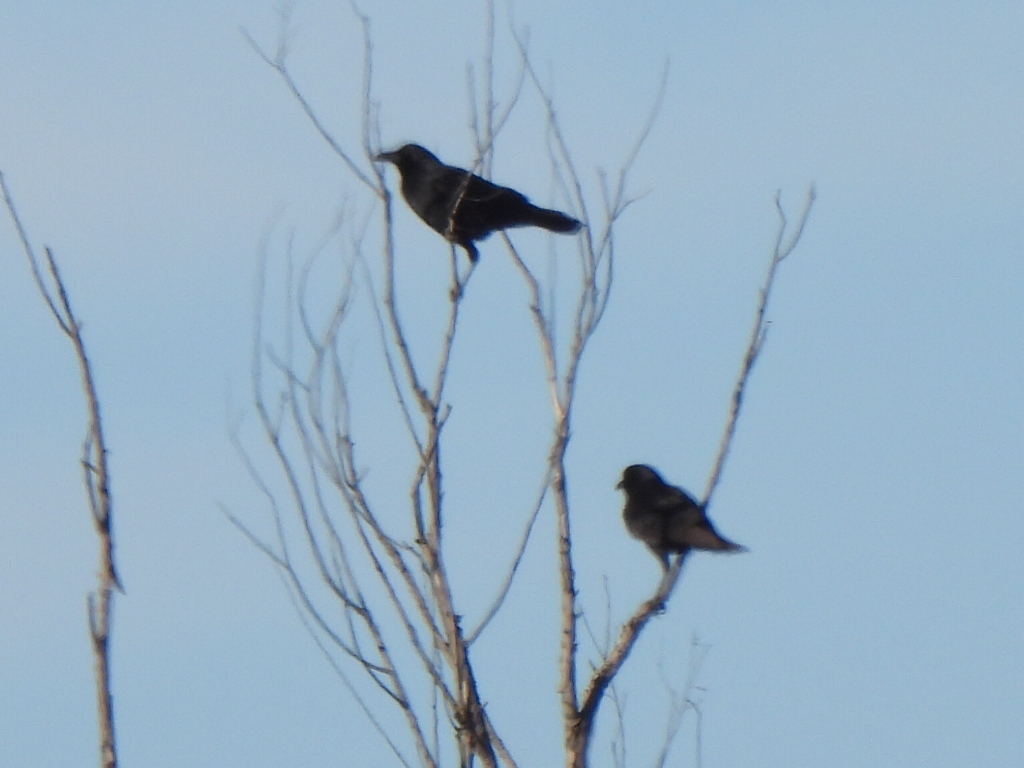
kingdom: Animalia
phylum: Chordata
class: Aves
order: Passeriformes
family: Corvidae
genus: Corvus
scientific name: Corvus brachyrhynchos
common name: American crow
